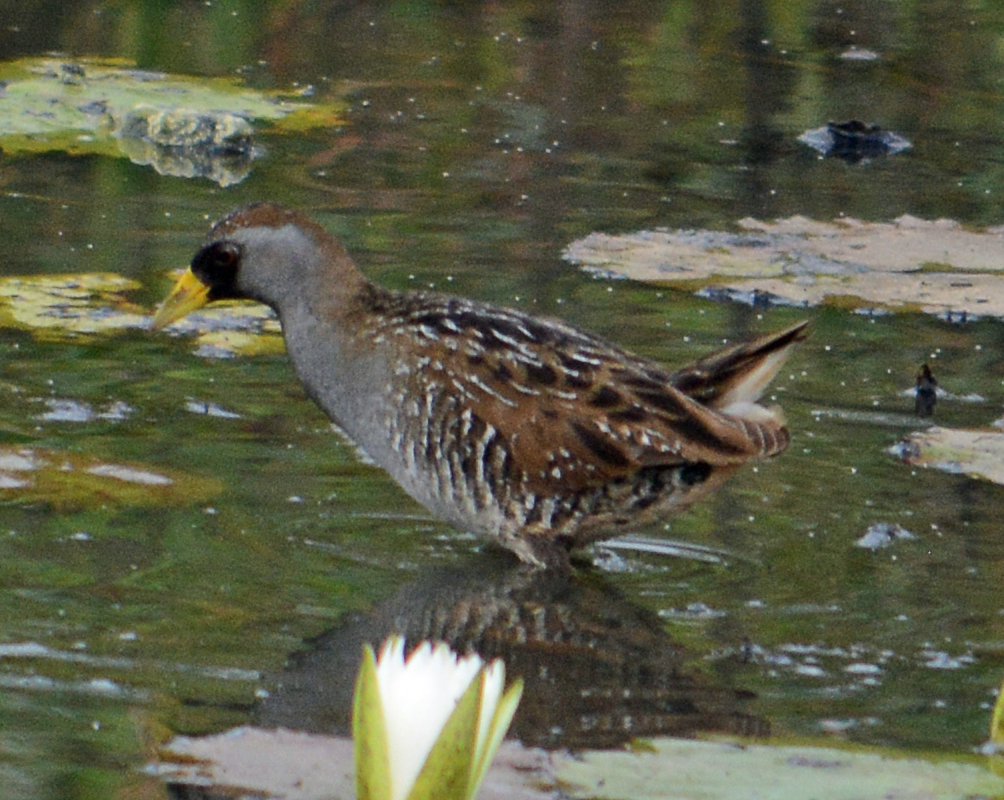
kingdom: Animalia
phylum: Chordata
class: Aves
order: Gruiformes
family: Rallidae
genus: Porzana
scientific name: Porzana carolina
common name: Sora
